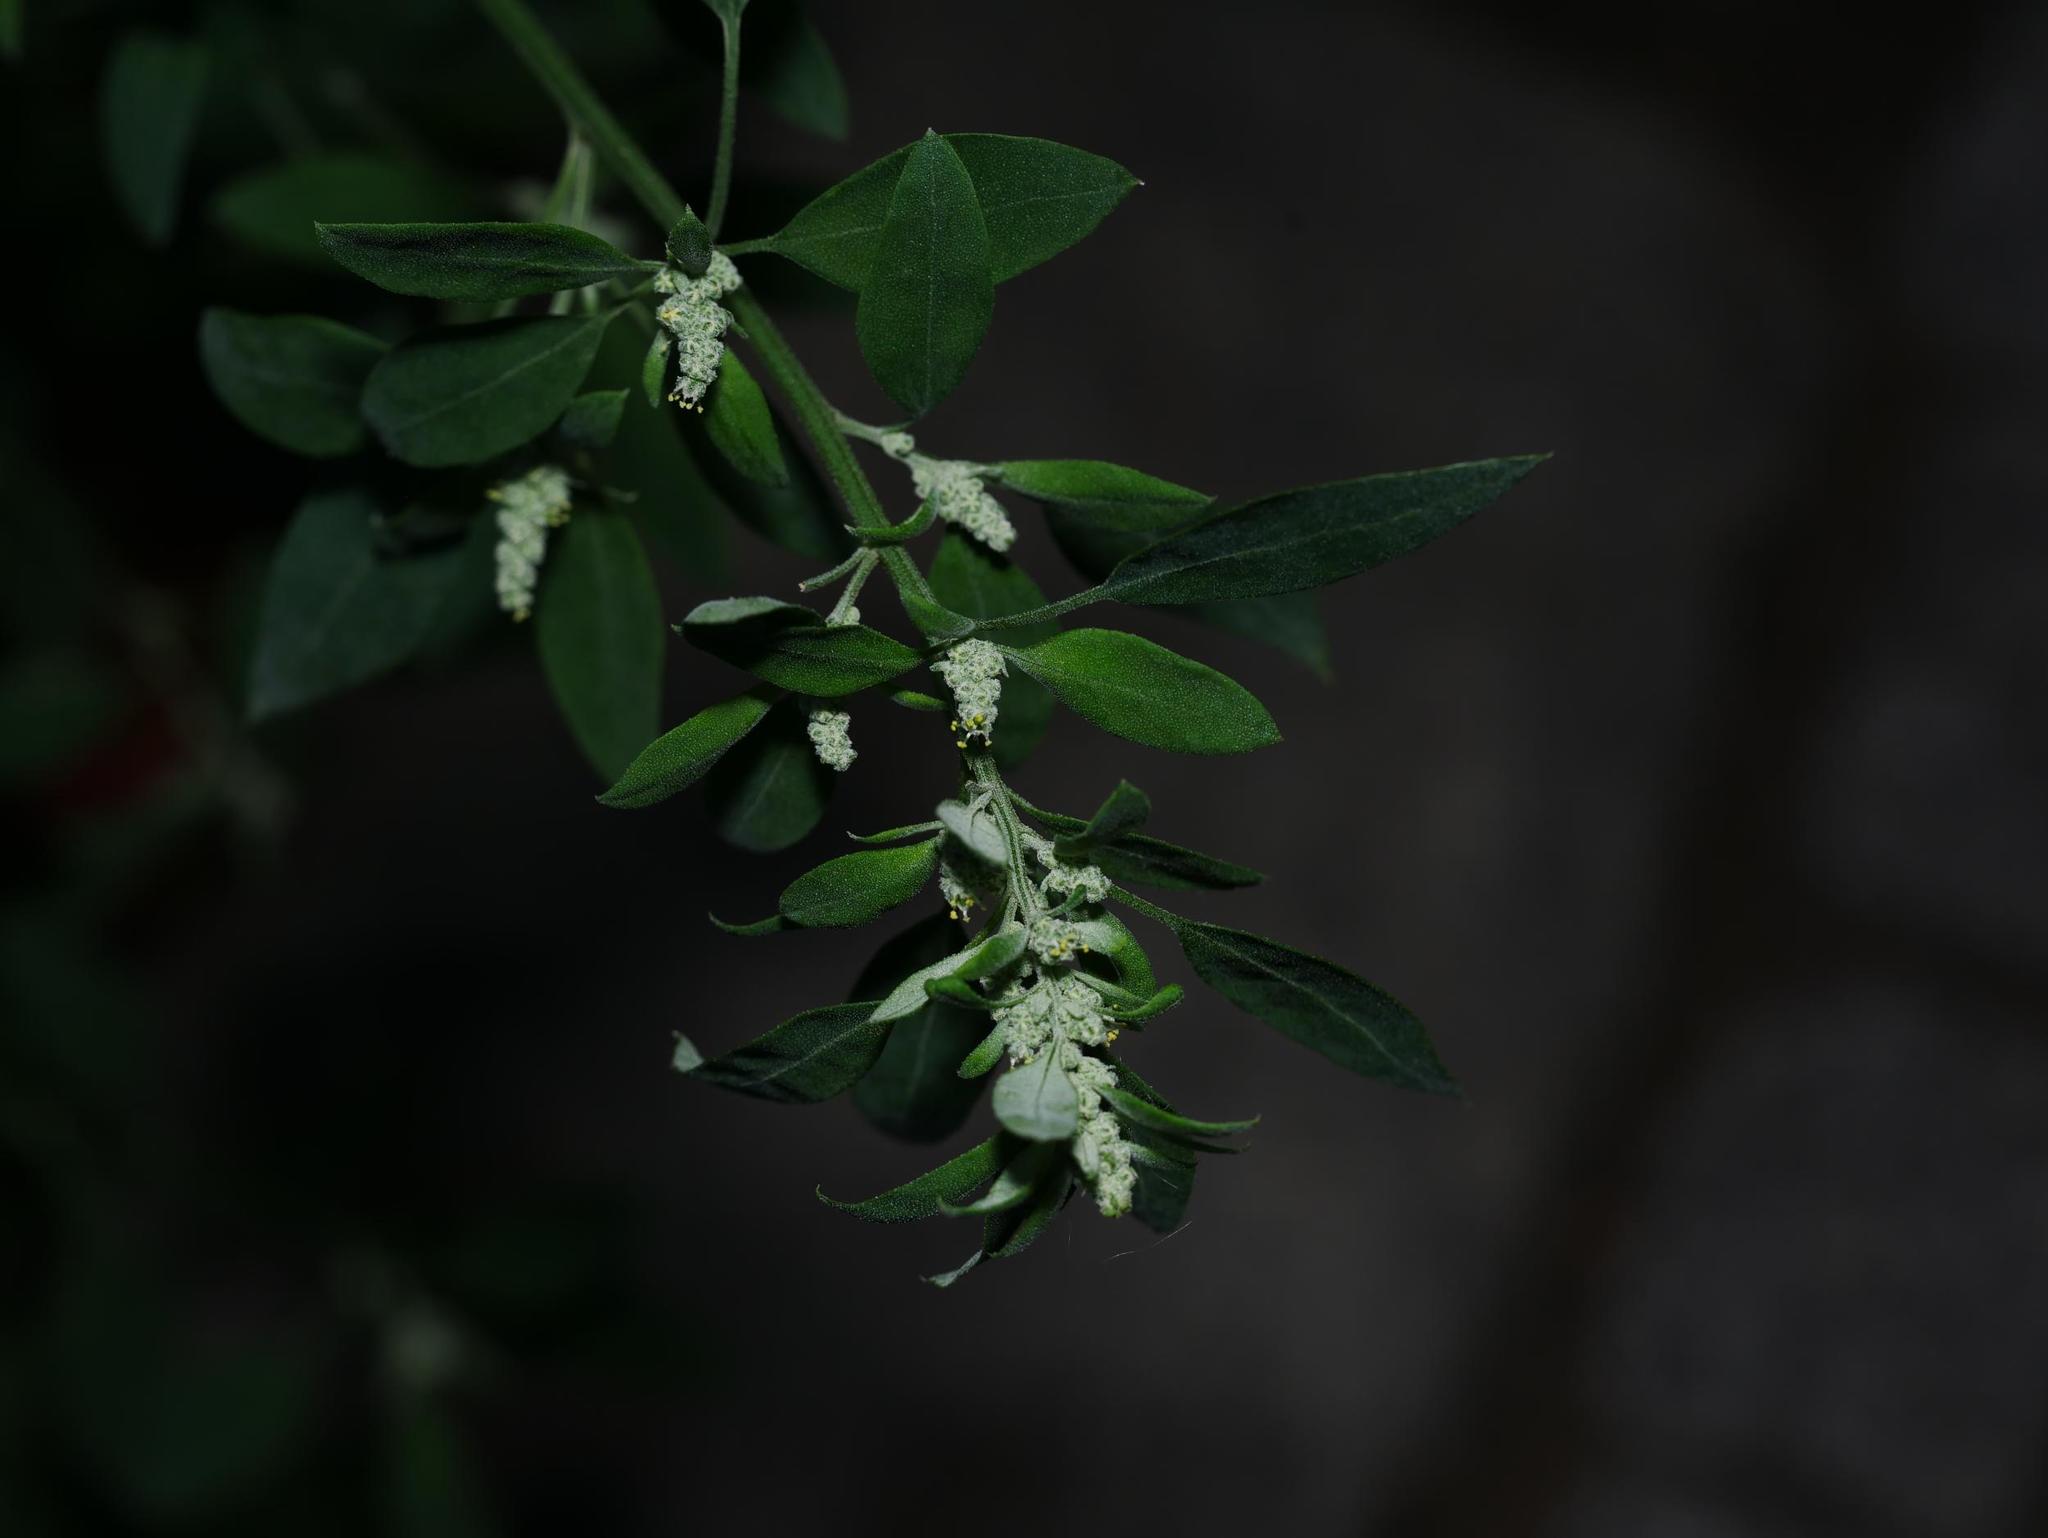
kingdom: Plantae
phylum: Tracheophyta
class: Magnoliopsida
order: Caryophyllales
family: Amaranthaceae
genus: Chenopodium
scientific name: Chenopodium album
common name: Fat-hen
